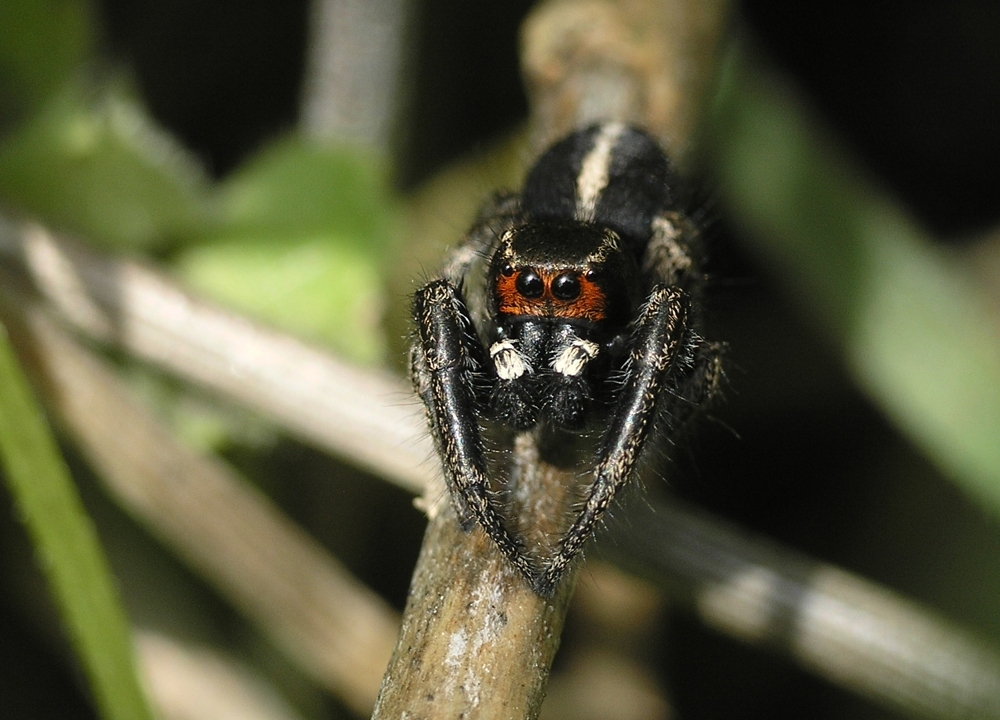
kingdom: Animalia
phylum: Arthropoda
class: Arachnida
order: Araneae
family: Salticidae
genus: Pellenes
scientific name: Pellenes seriatus
